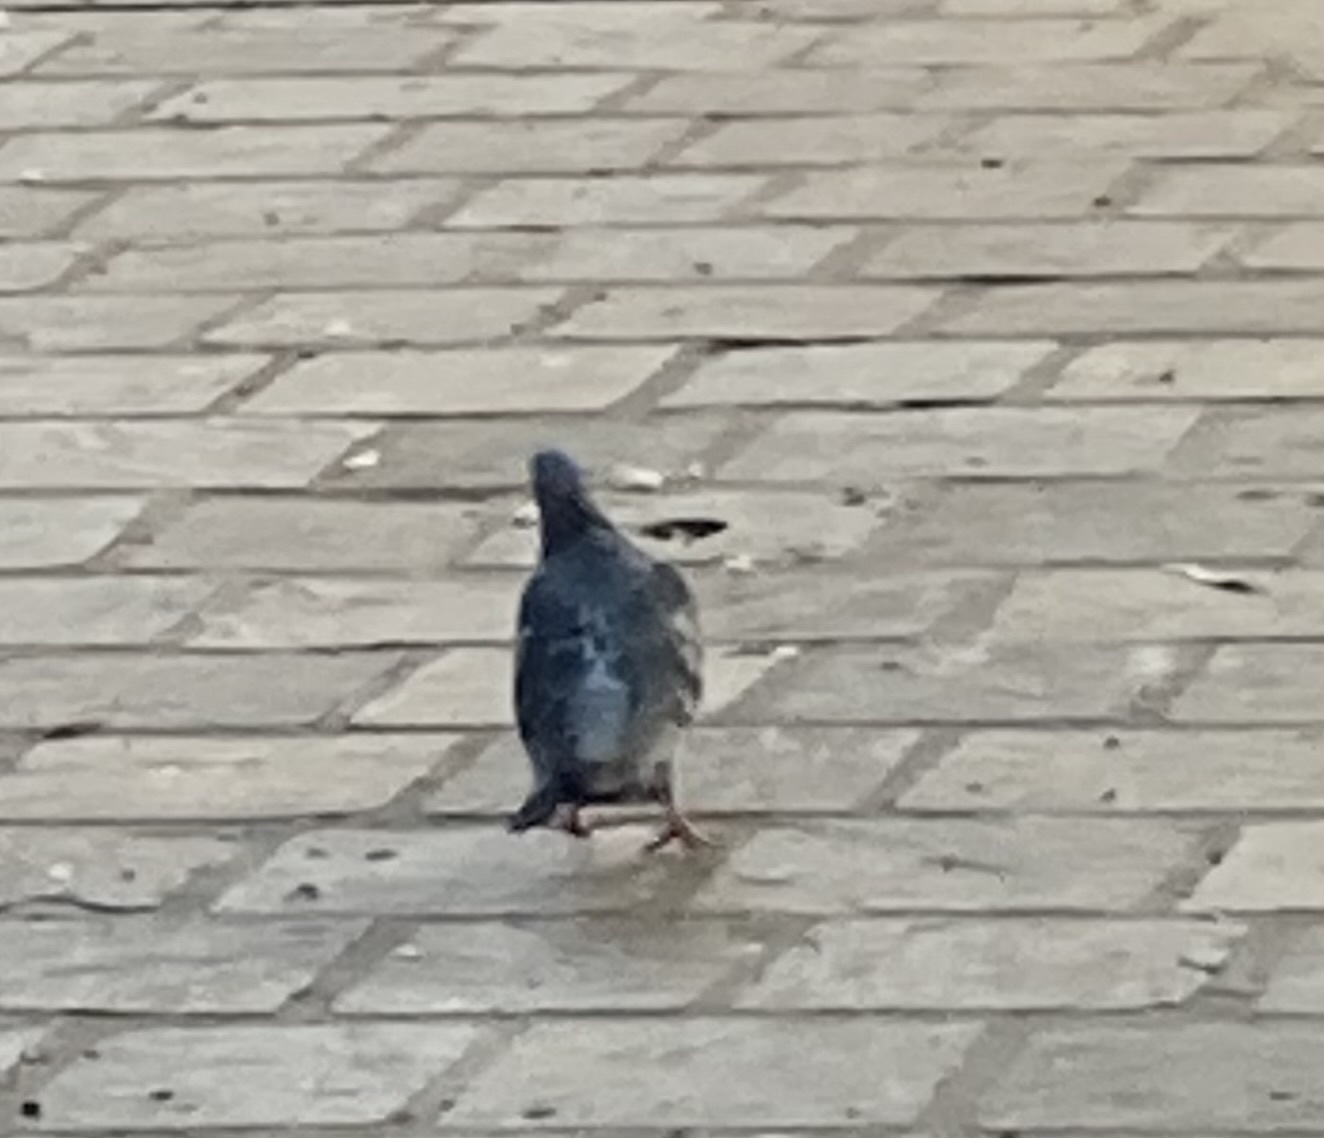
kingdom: Animalia
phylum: Chordata
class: Aves
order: Columbiformes
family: Columbidae
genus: Columba
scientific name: Columba livia
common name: Rock pigeon
